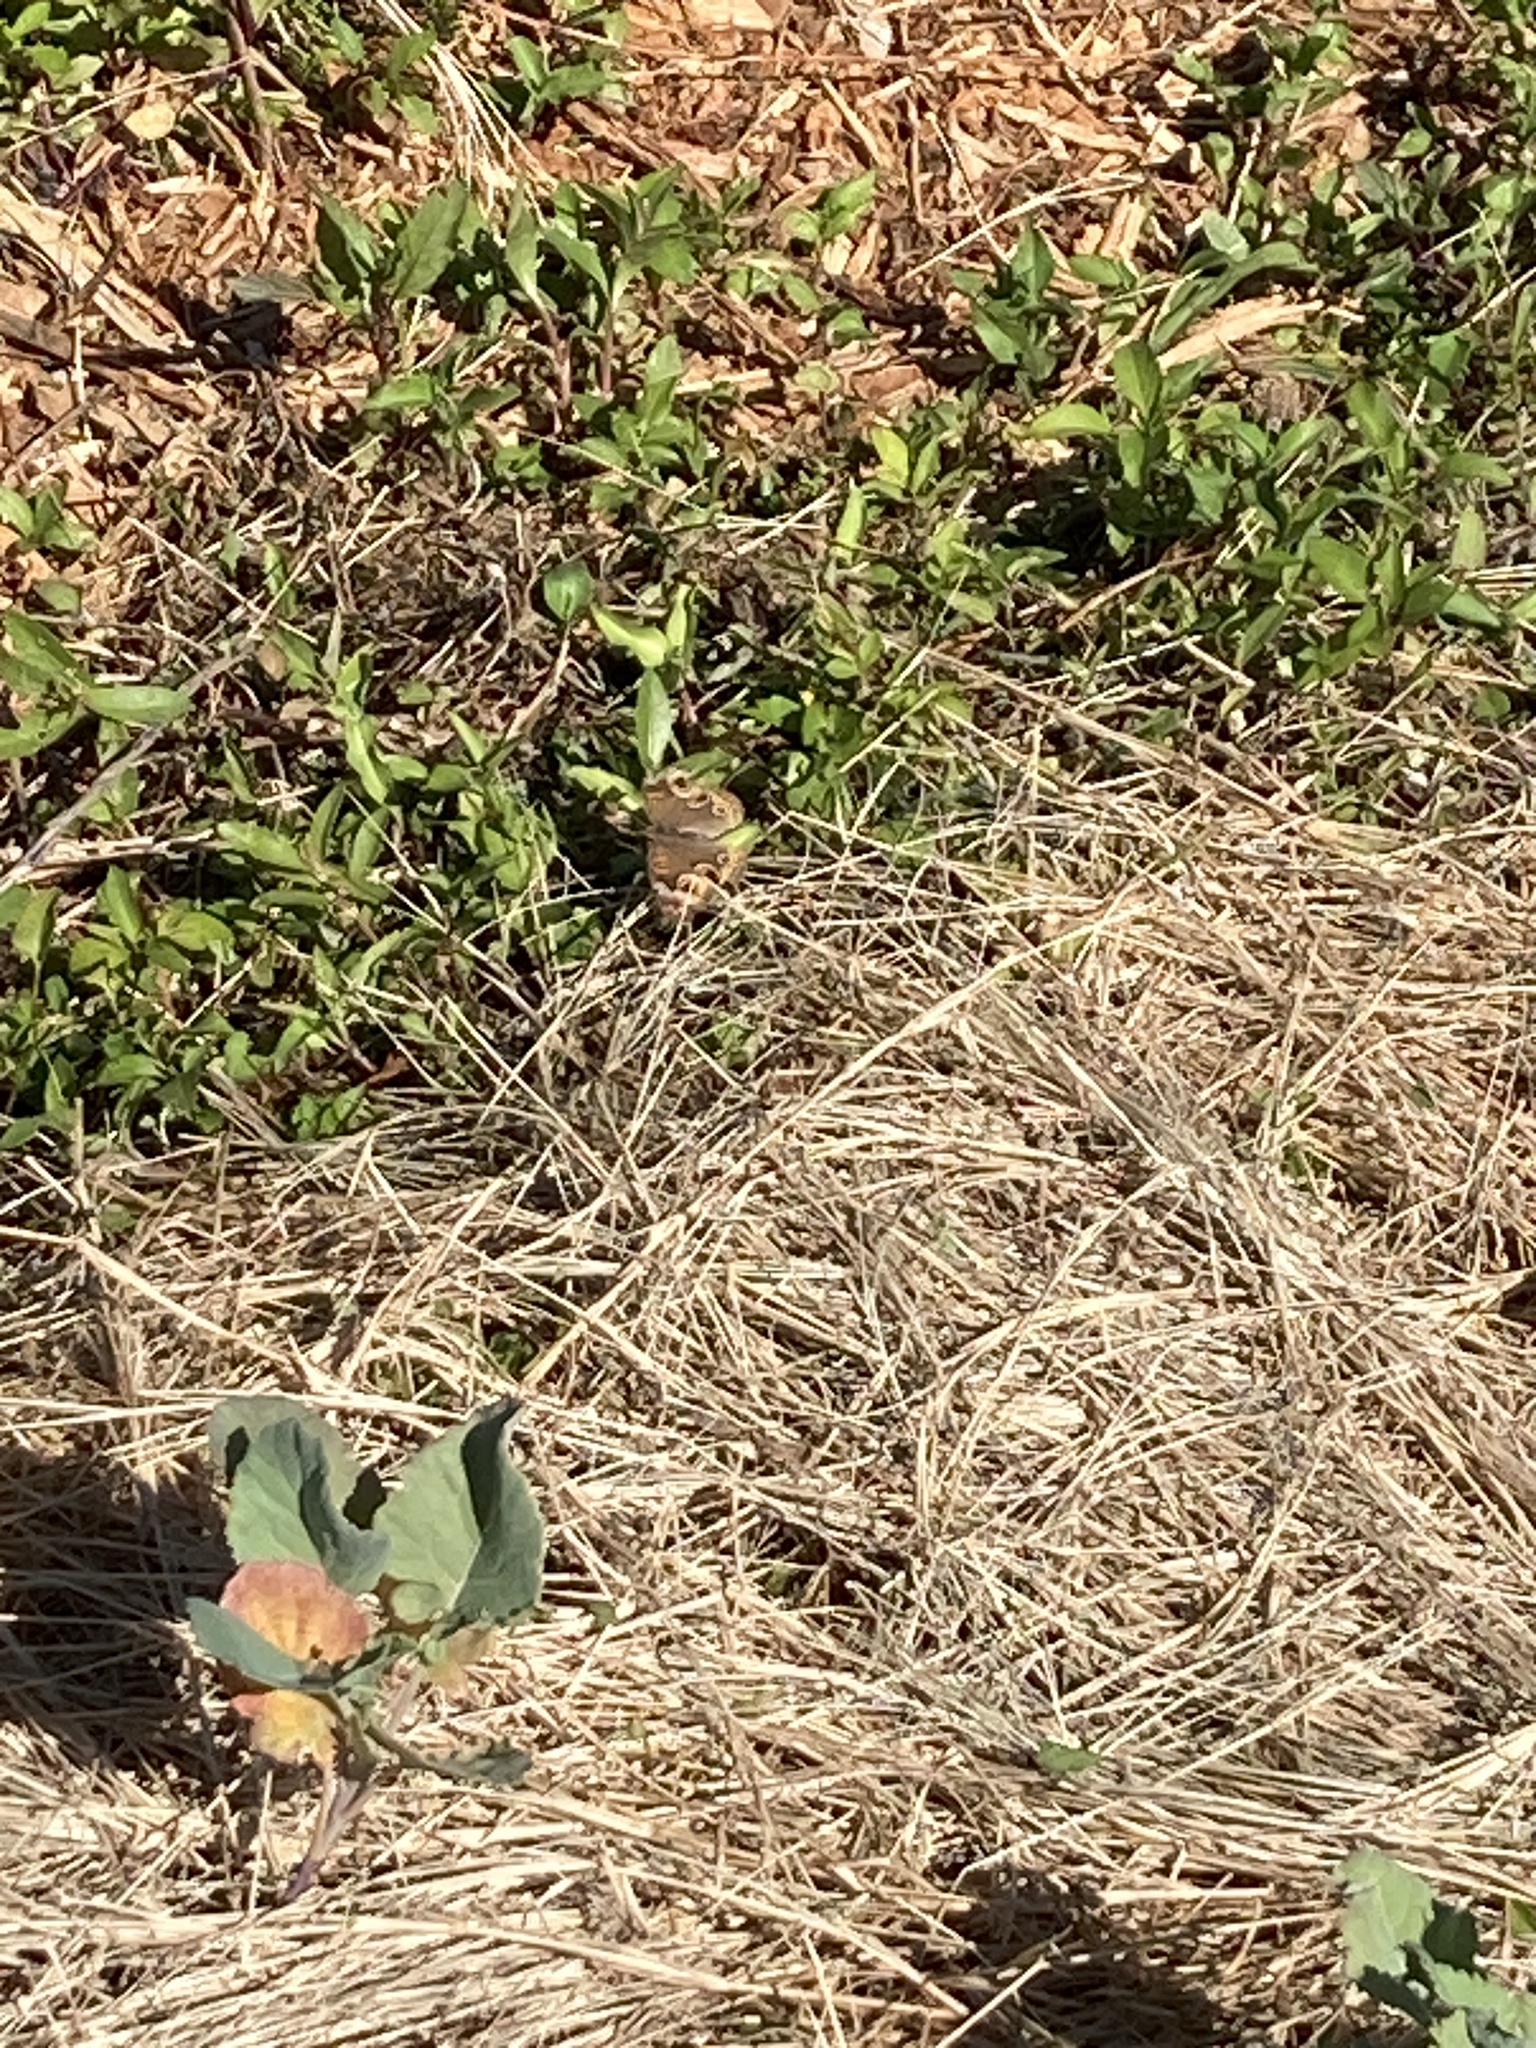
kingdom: Animalia
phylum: Arthropoda
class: Insecta
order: Lepidoptera
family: Nymphalidae
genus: Junonia
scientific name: Junonia coenia
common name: Common buckeye
